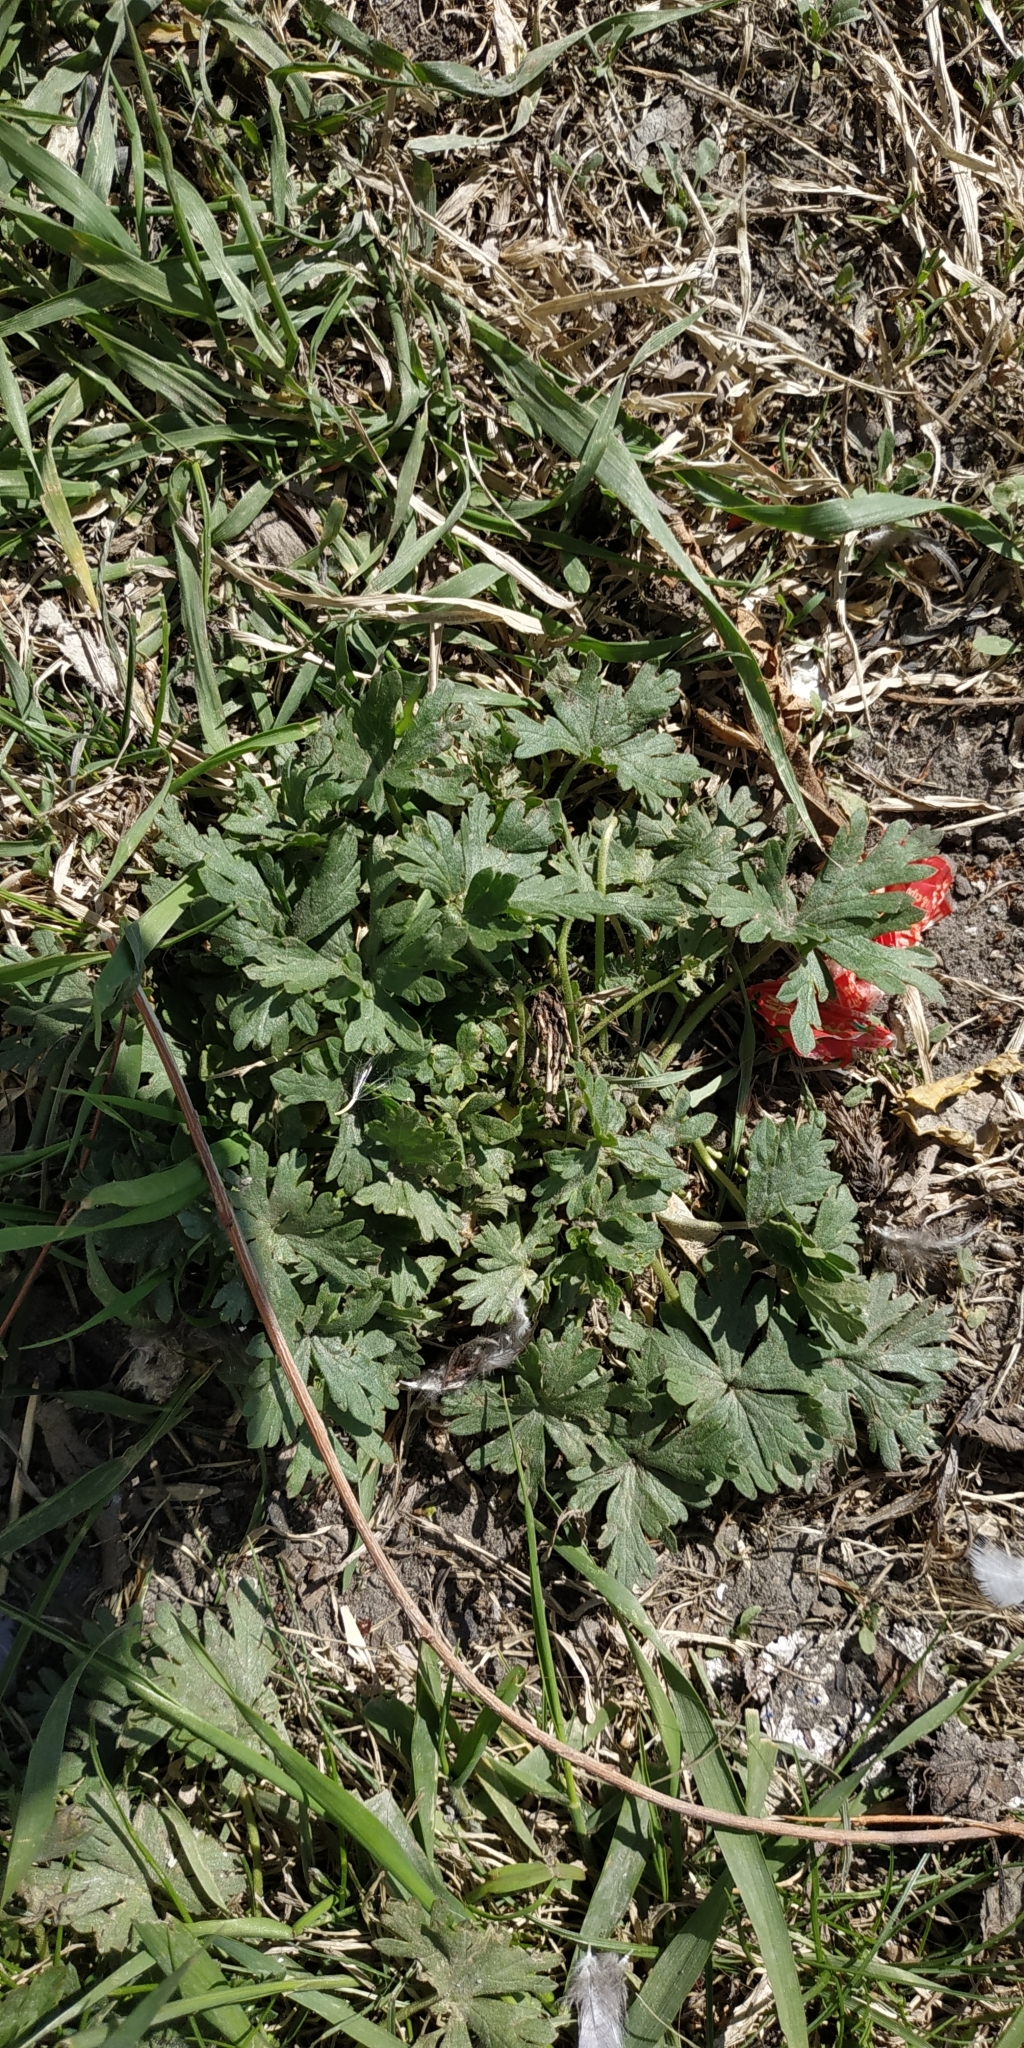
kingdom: Plantae
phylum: Tracheophyta
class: Magnoliopsida
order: Geraniales
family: Geraniaceae
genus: Geranium
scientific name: Geranium sibiricum
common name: Siberian crane's-bill
